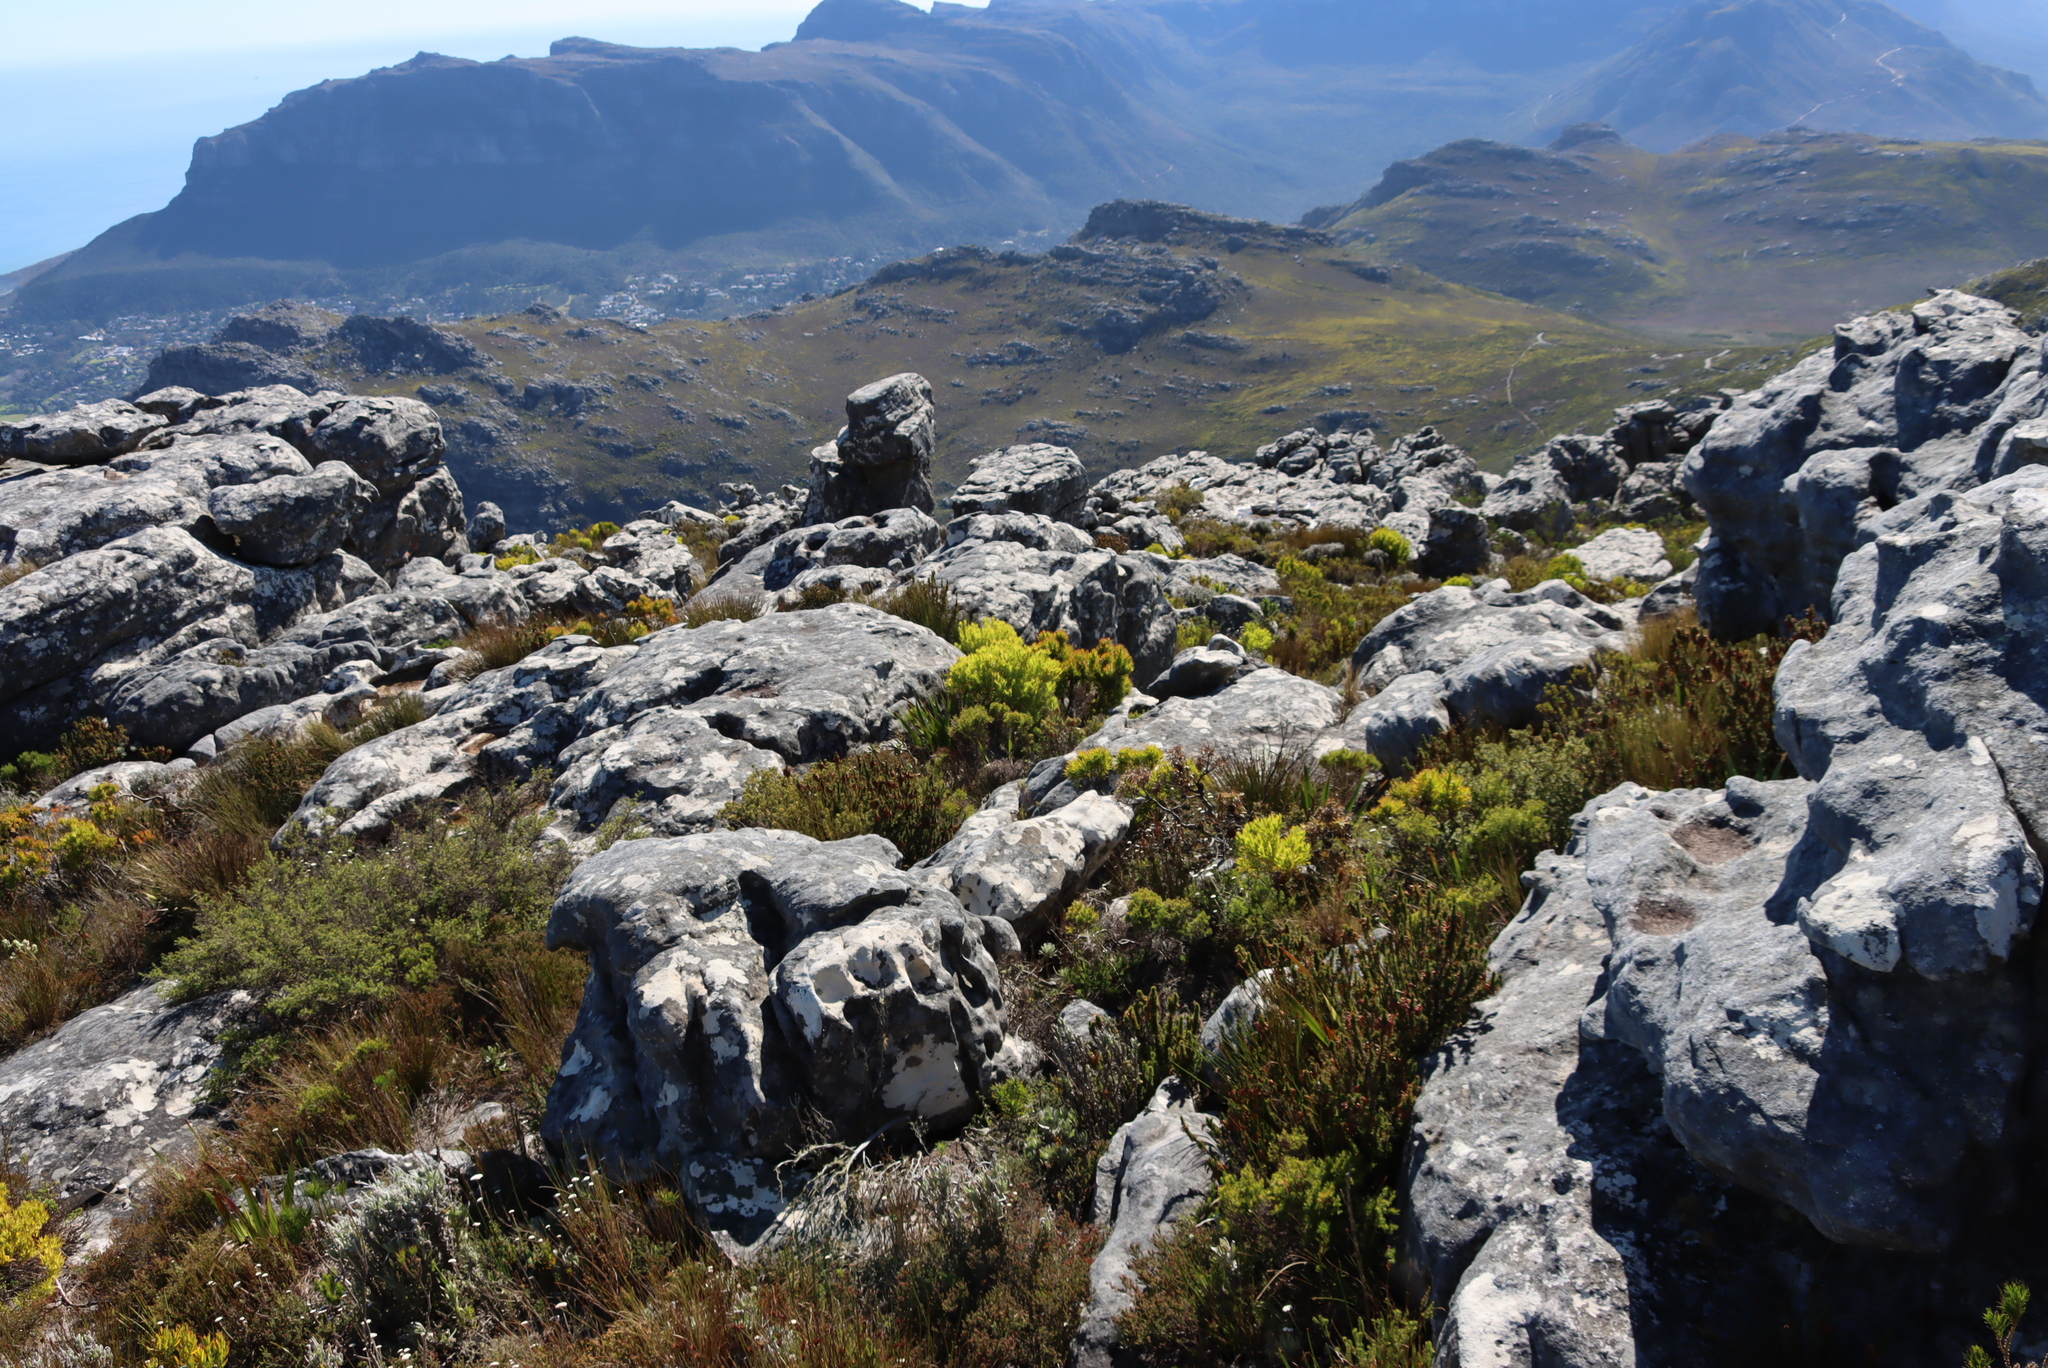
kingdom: Plantae
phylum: Tracheophyta
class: Magnoliopsida
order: Proteales
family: Proteaceae
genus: Leucadendron
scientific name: Leucadendron xanthoconus
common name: Sickle-leaf conebush
